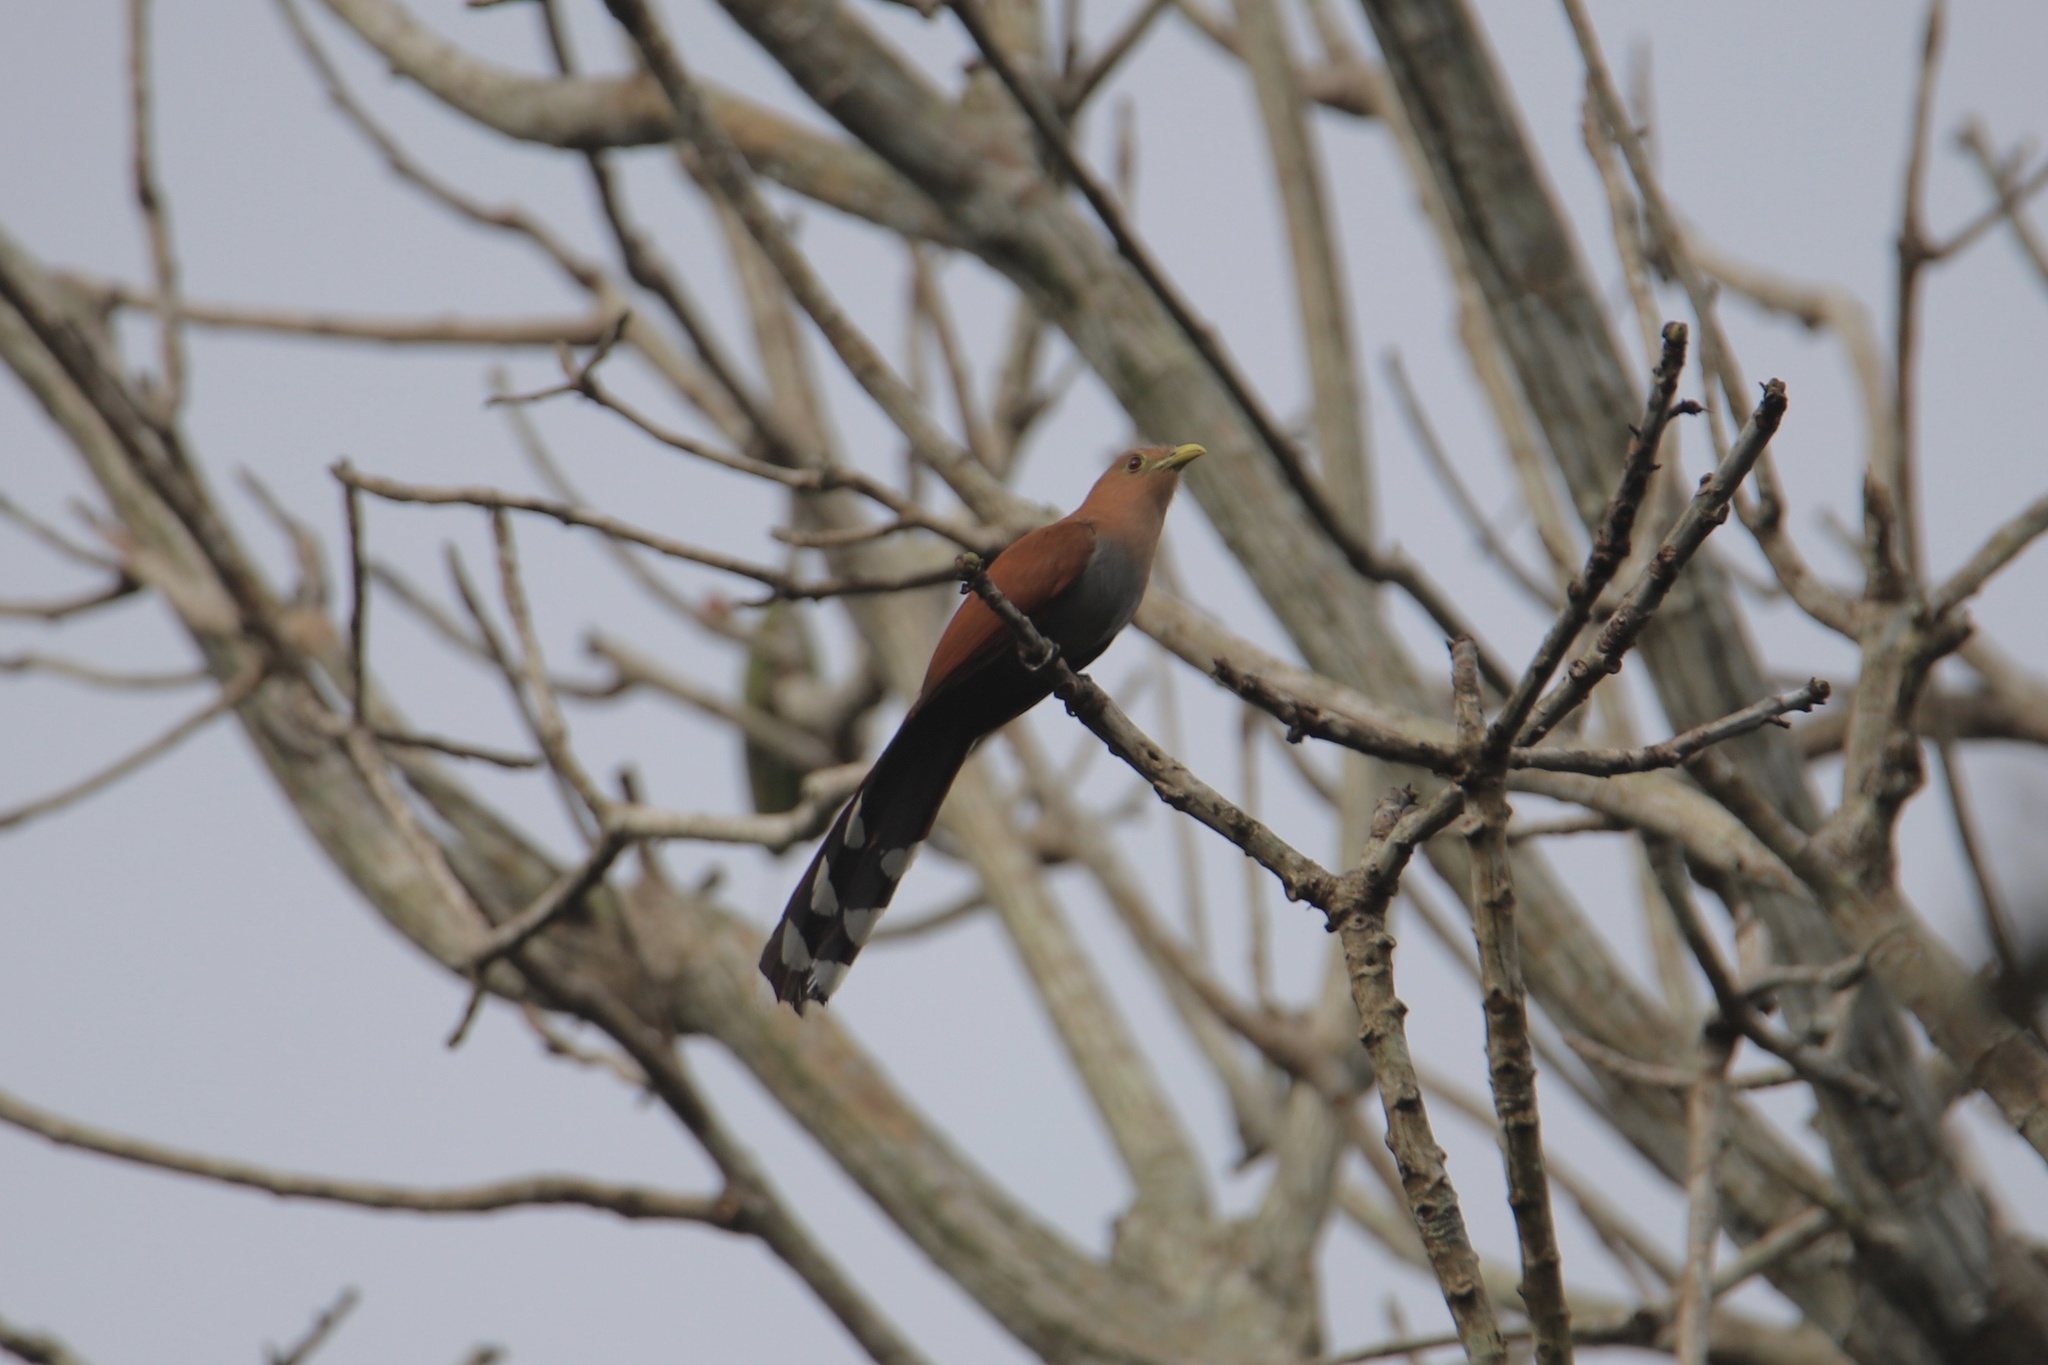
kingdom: Animalia
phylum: Chordata
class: Aves
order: Cuculiformes
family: Cuculidae
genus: Piaya
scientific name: Piaya cayana
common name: Squirrel cuckoo
